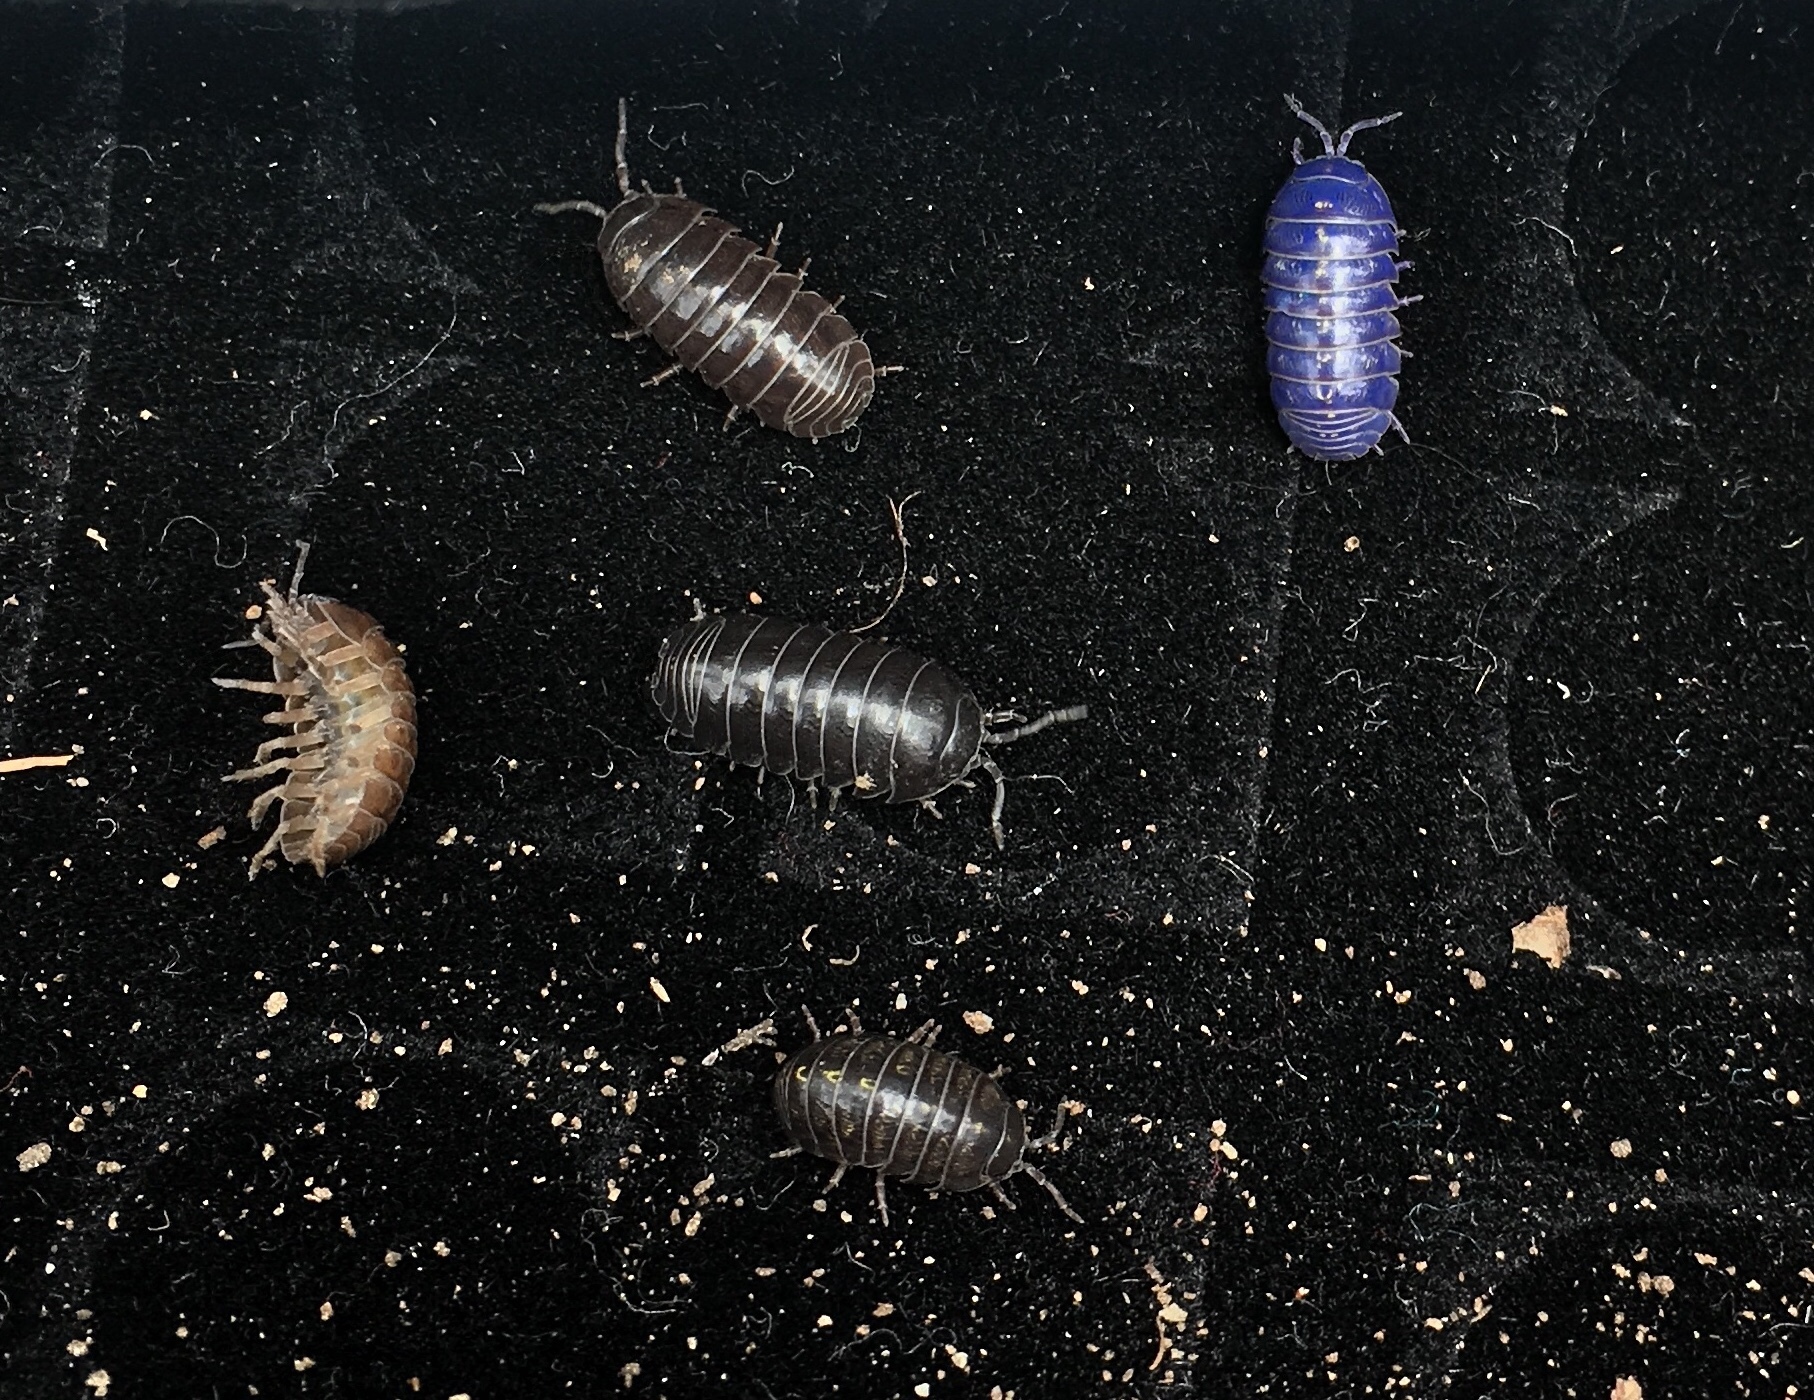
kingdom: Viruses
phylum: Nucleocytoviricota
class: Megaviricetes
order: Pimascovirales
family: Iridoviridae
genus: Iridovirus
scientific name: Iridovirus Invertebrate iridescent virus 31
